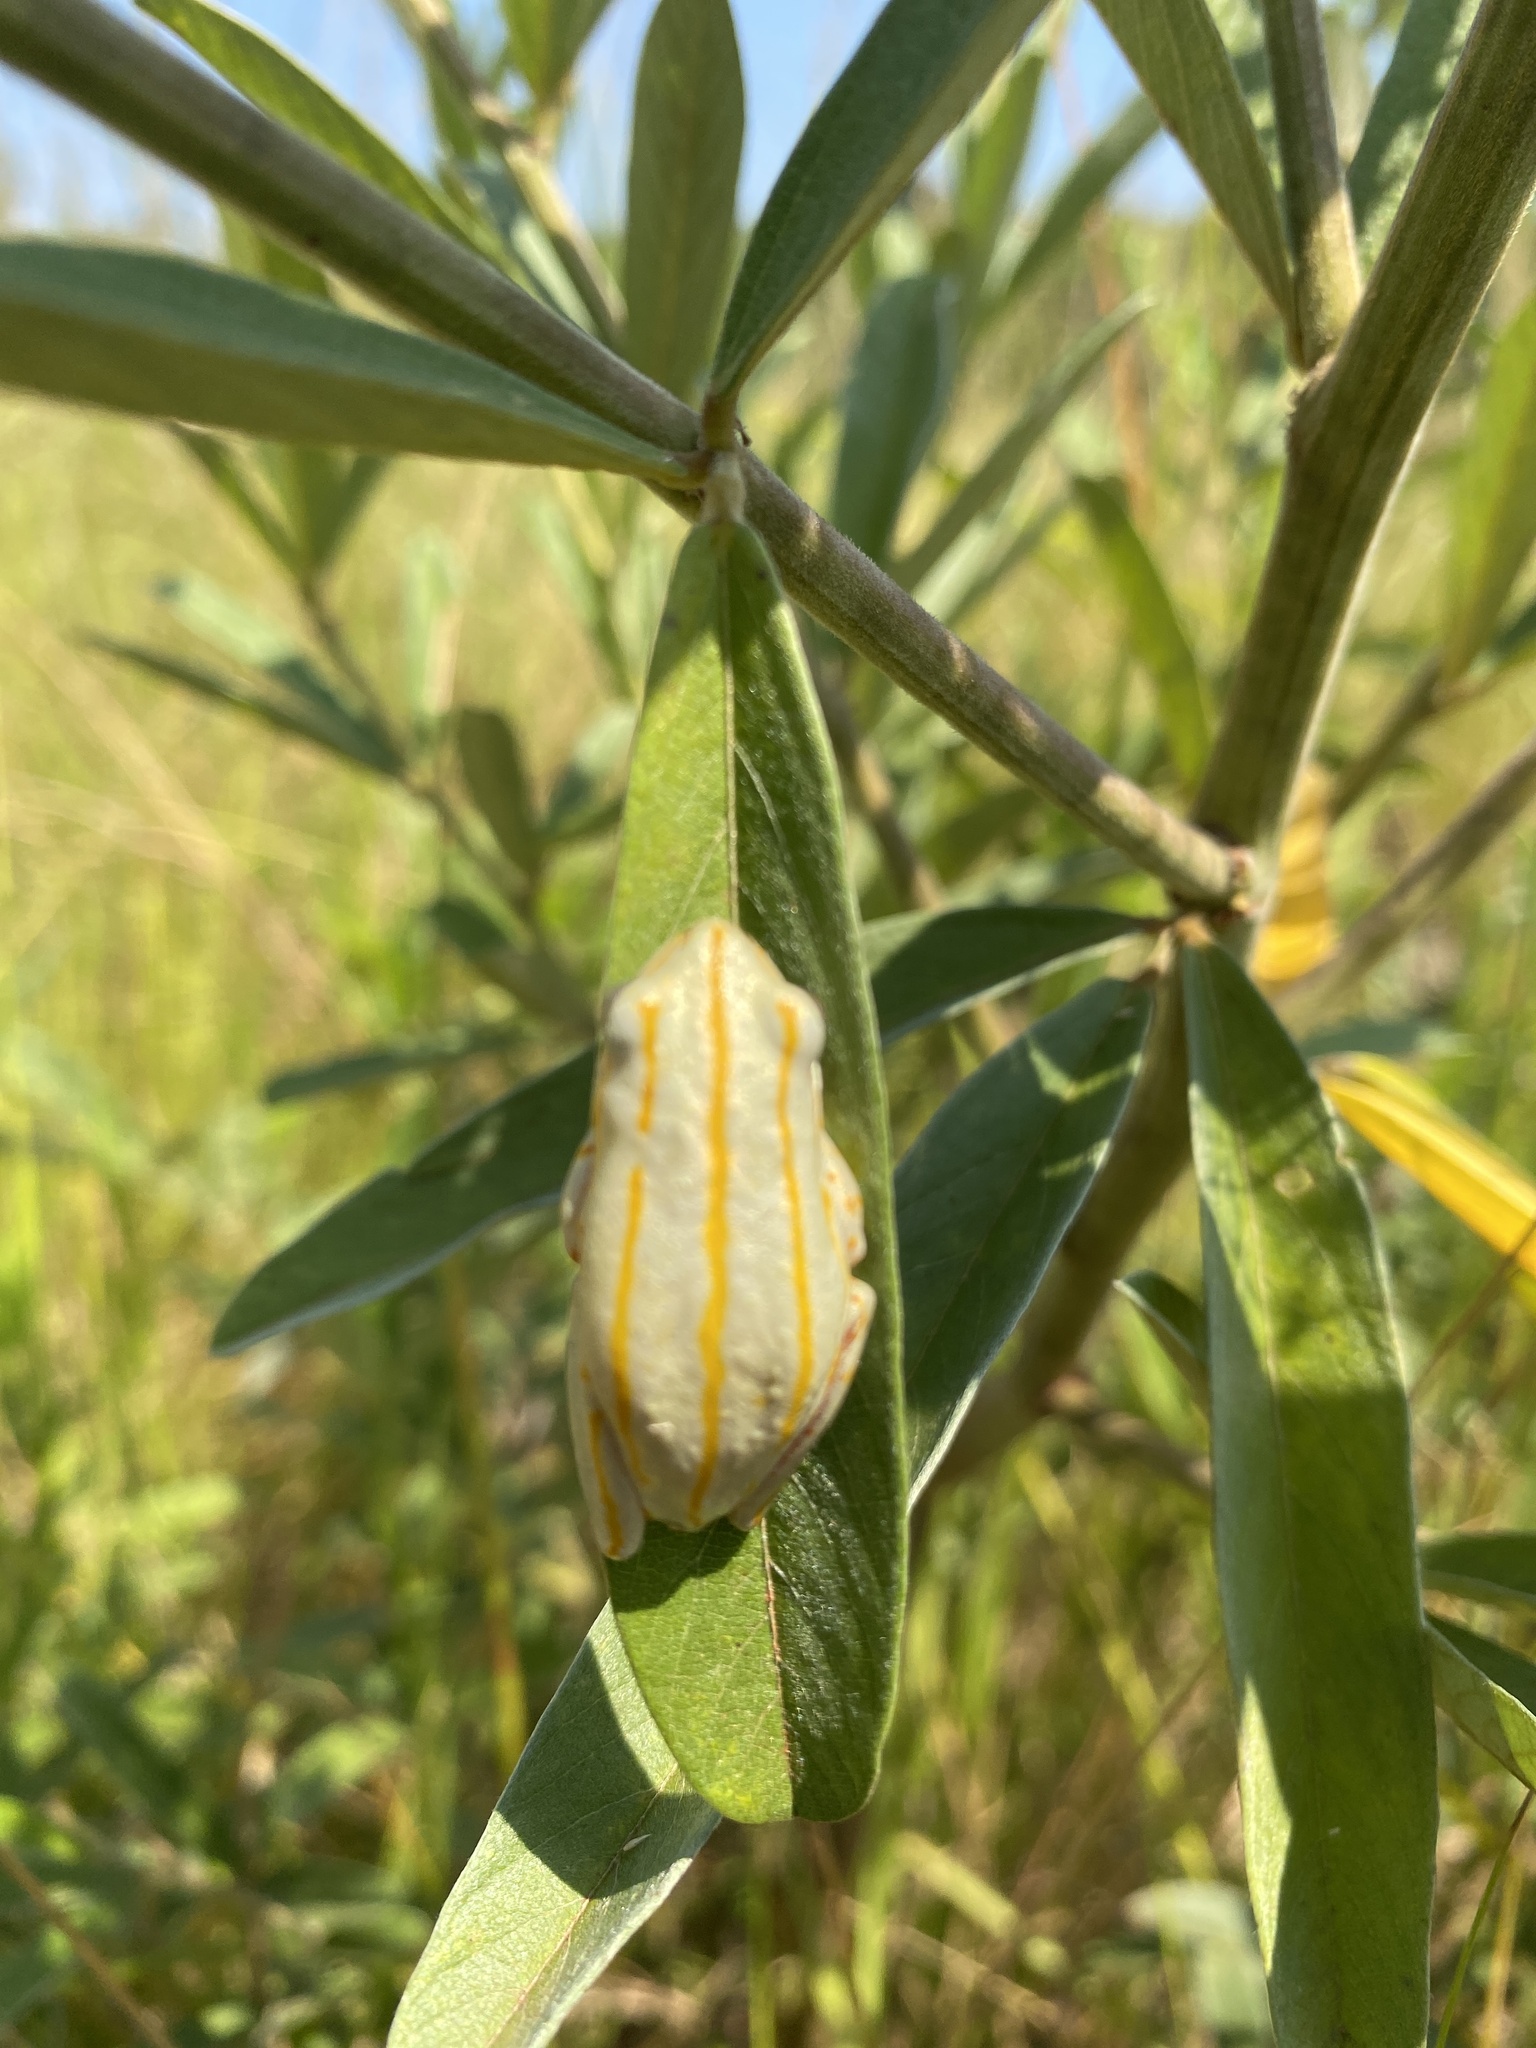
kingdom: Animalia
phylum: Chordata
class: Amphibia
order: Anura
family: Hyperoliidae
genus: Hyperolius
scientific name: Hyperolius marmoratus
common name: Painted reed frog
